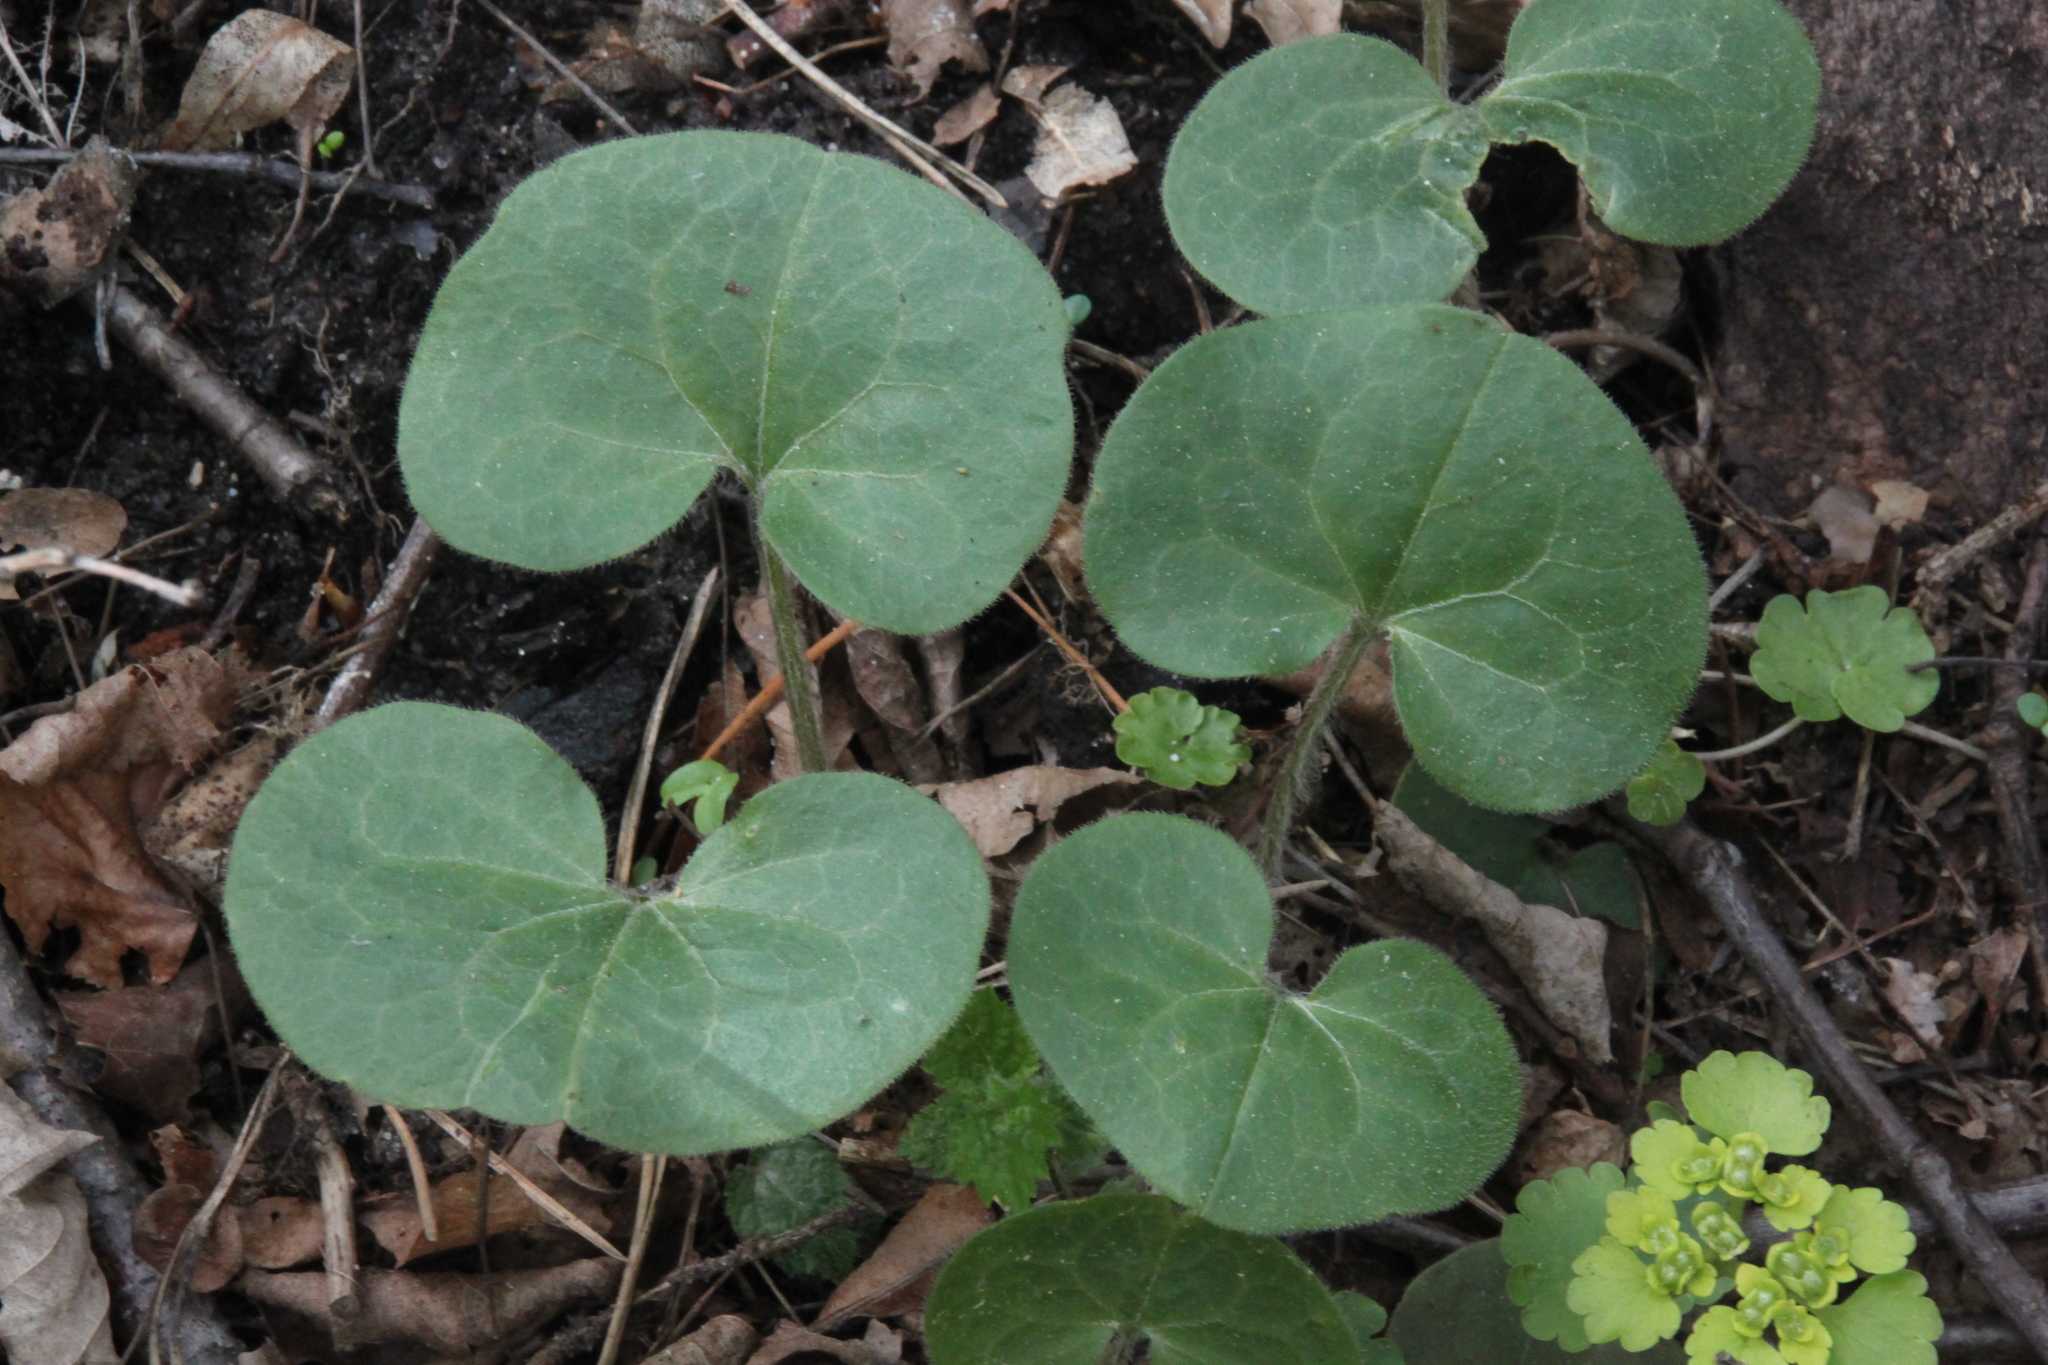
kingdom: Plantae
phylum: Tracheophyta
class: Magnoliopsida
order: Piperales
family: Aristolochiaceae
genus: Asarum
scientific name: Asarum europaeum
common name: Asarabacca
